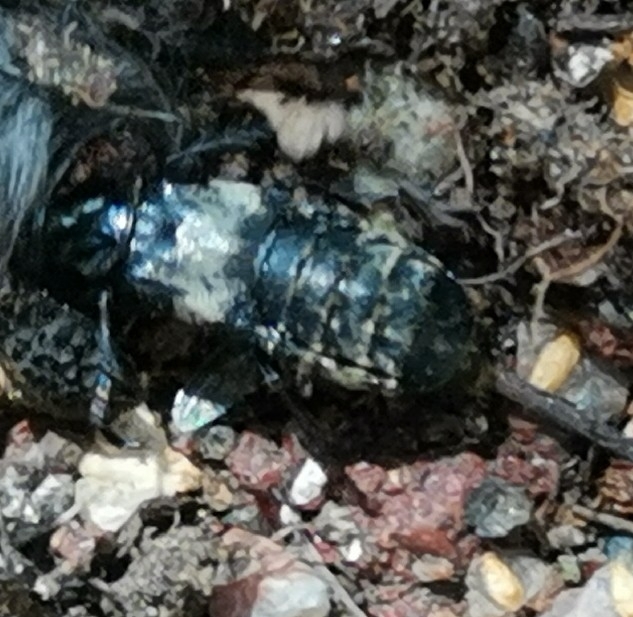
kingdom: Animalia
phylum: Arthropoda
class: Insecta
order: Coleoptera
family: Staphylinidae
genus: Creophilus
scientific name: Creophilus maxillosus
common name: Hairy rove beetle
